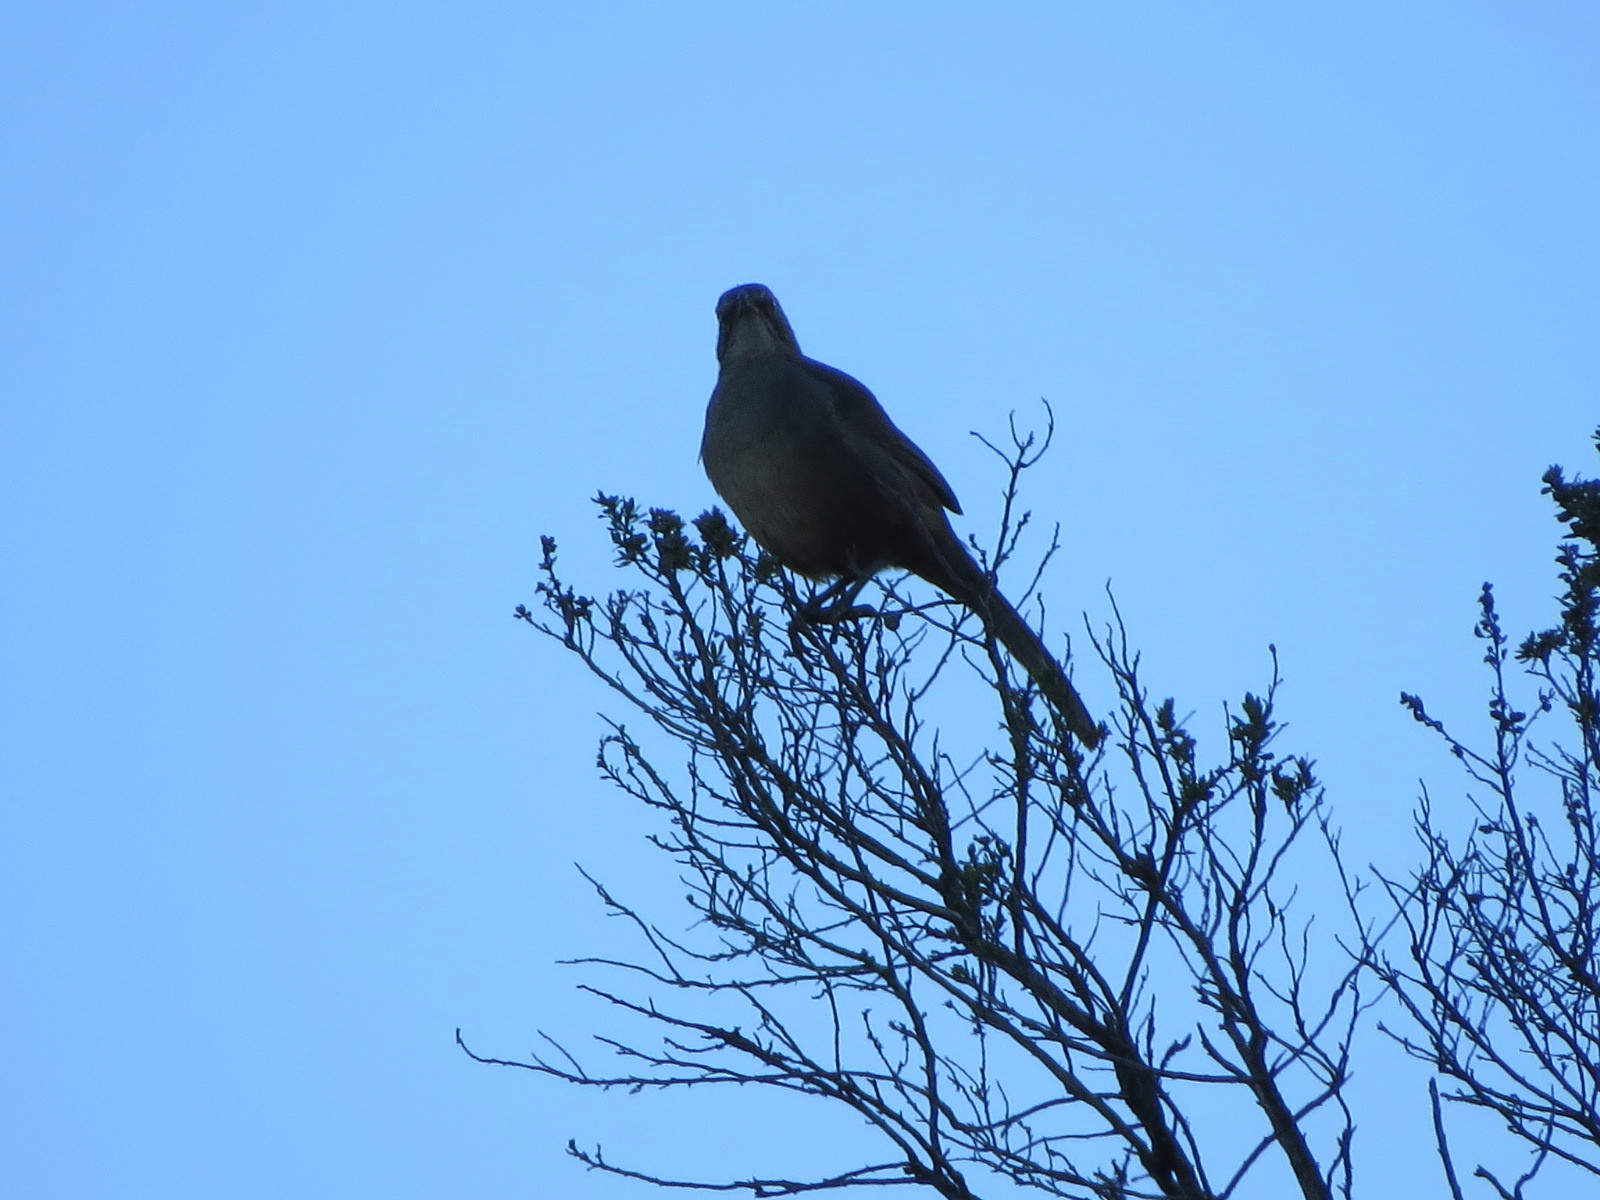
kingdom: Animalia
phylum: Chordata
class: Aves
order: Passeriformes
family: Mimidae
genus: Toxostoma
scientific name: Toxostoma redivivum
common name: California thrasher
